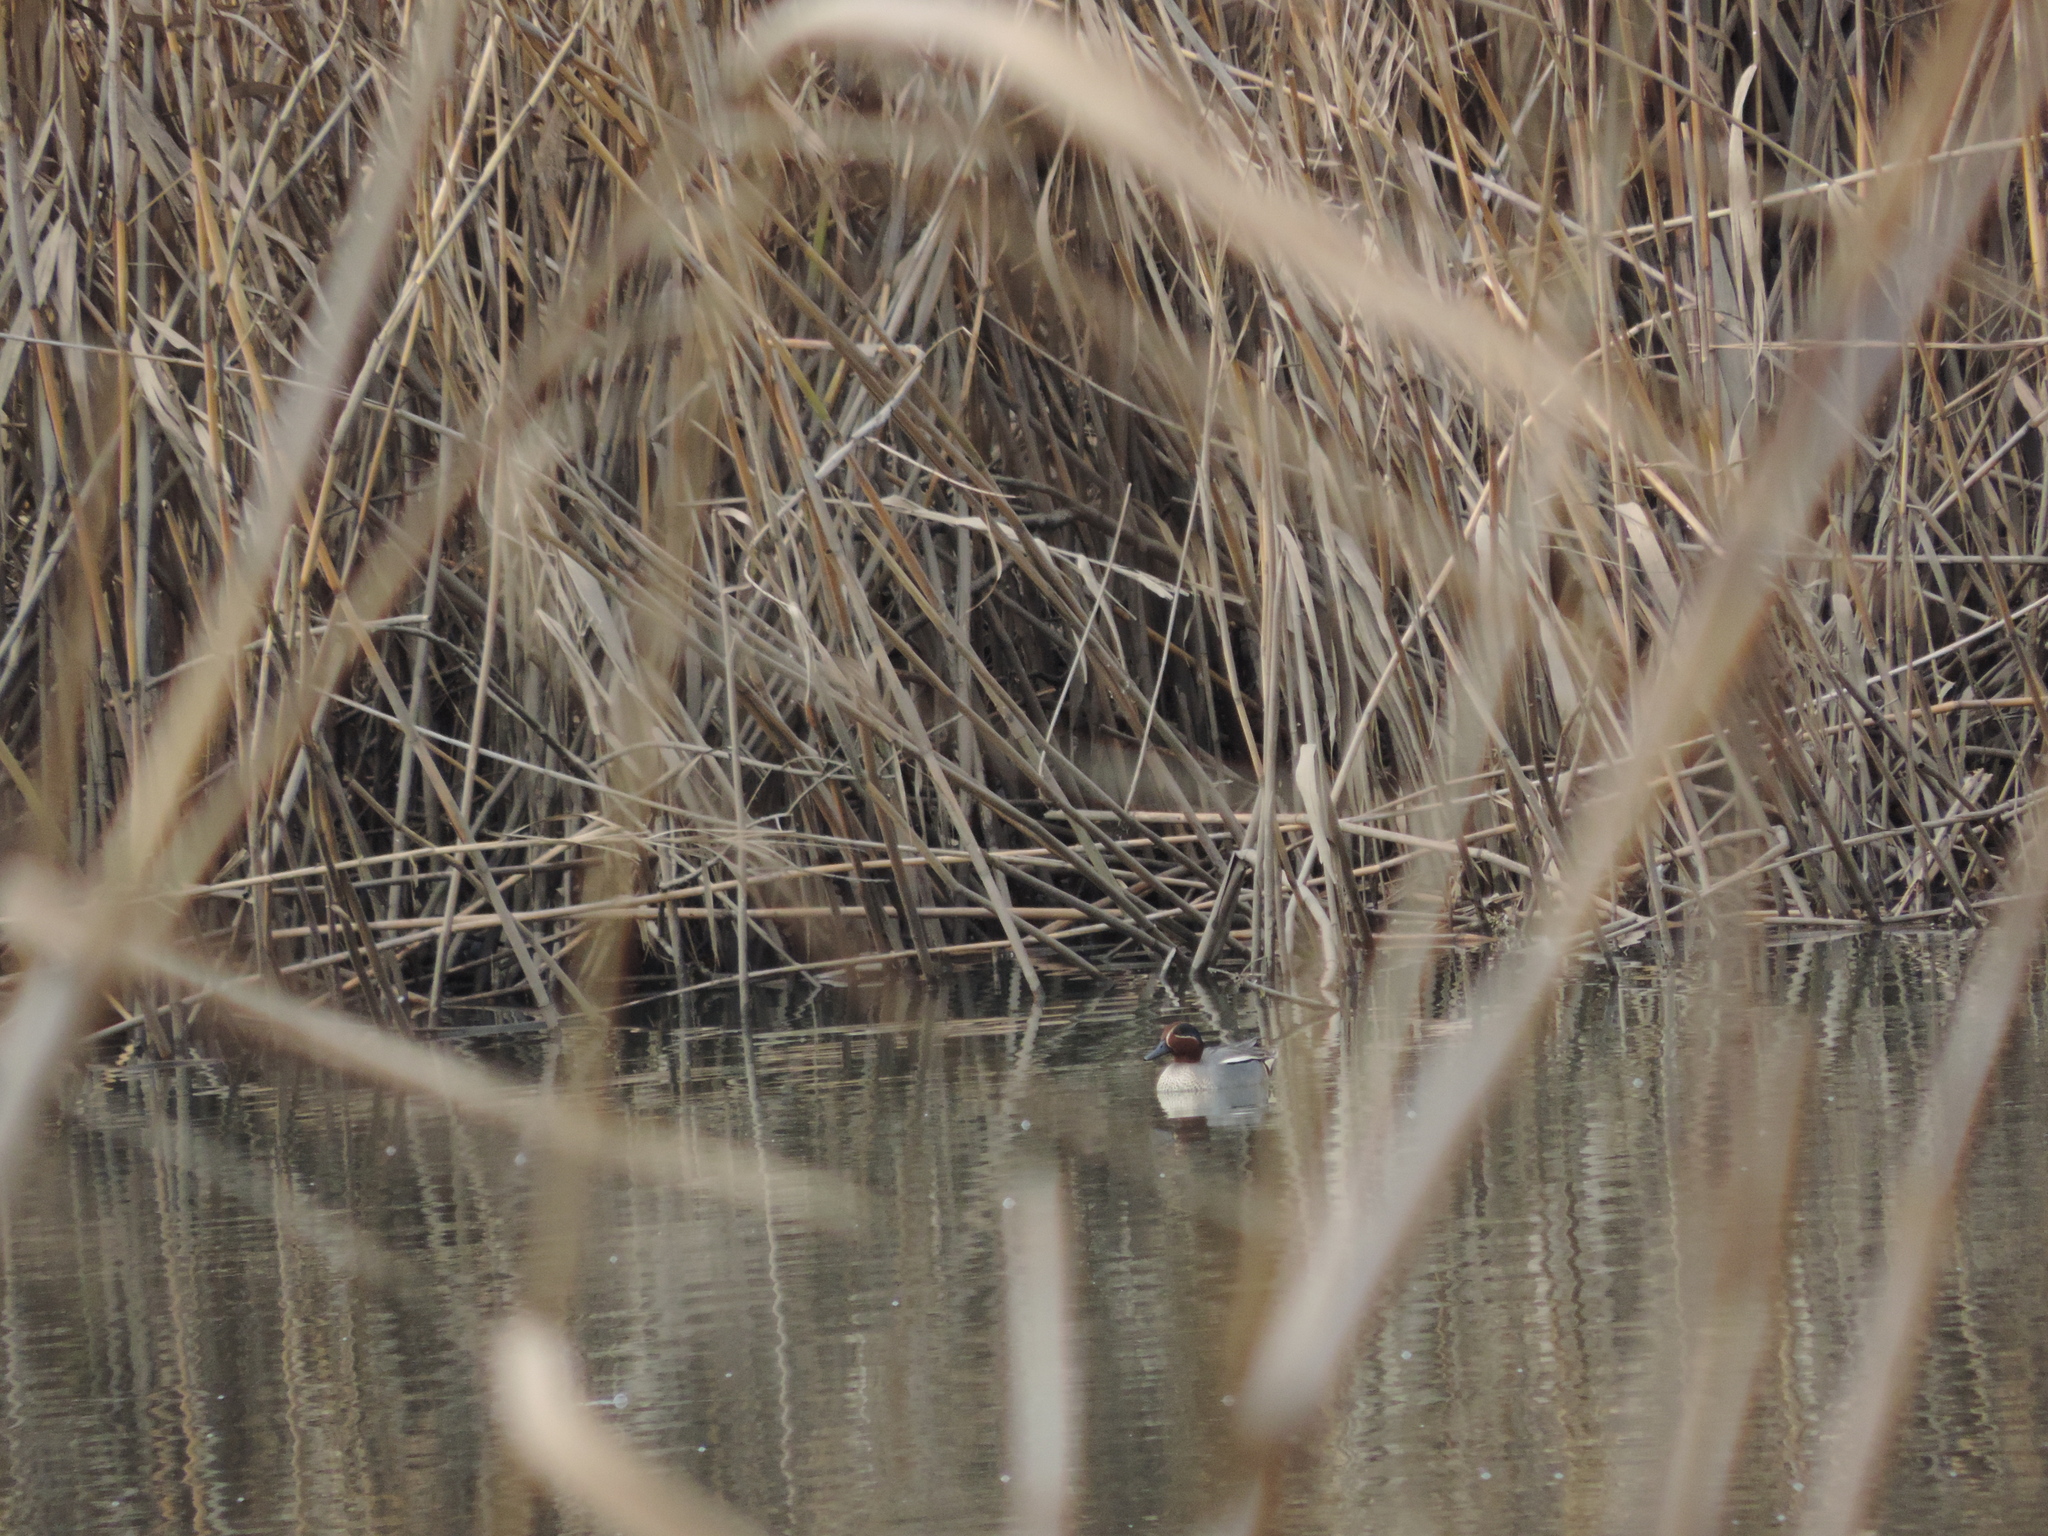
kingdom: Animalia
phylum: Chordata
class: Aves
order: Anseriformes
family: Anatidae
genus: Anas
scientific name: Anas crecca
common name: Eurasian teal
